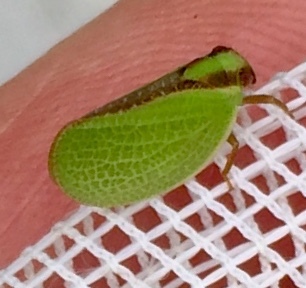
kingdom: Animalia
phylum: Arthropoda
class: Insecta
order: Hemiptera
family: Acanaloniidae
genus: Acanalonia
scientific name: Acanalonia bivittata
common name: Two-striped planthopper
